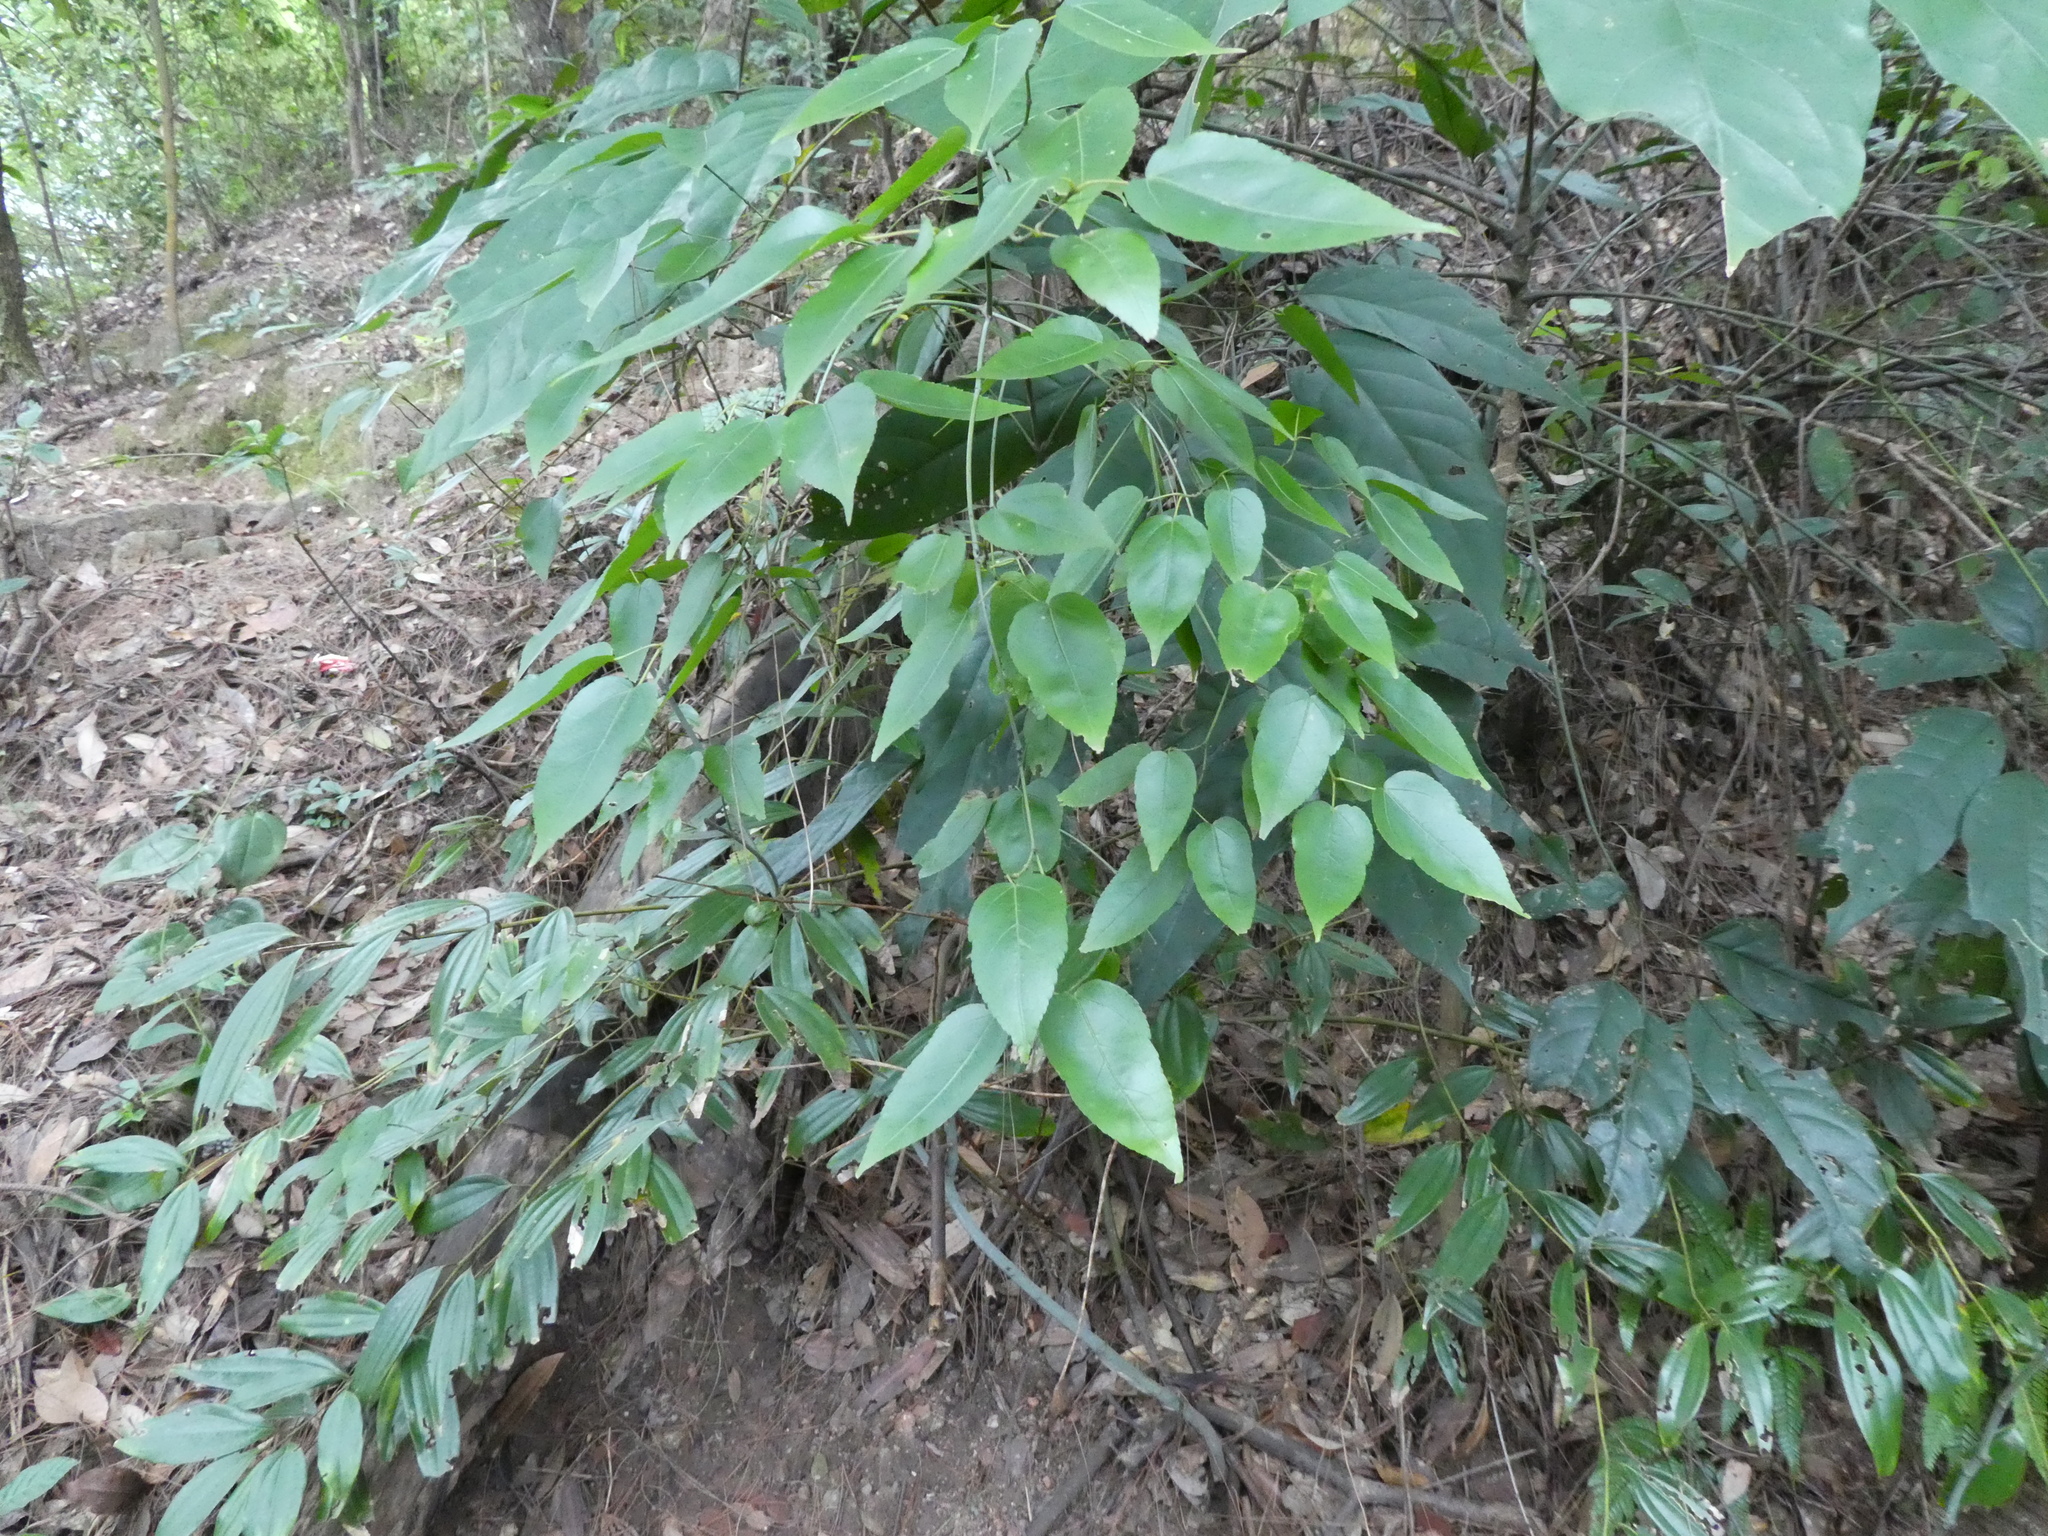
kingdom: Plantae
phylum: Tracheophyta
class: Magnoliopsida
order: Sapindales
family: Sapindaceae
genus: Acer
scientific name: Acer cordatum
